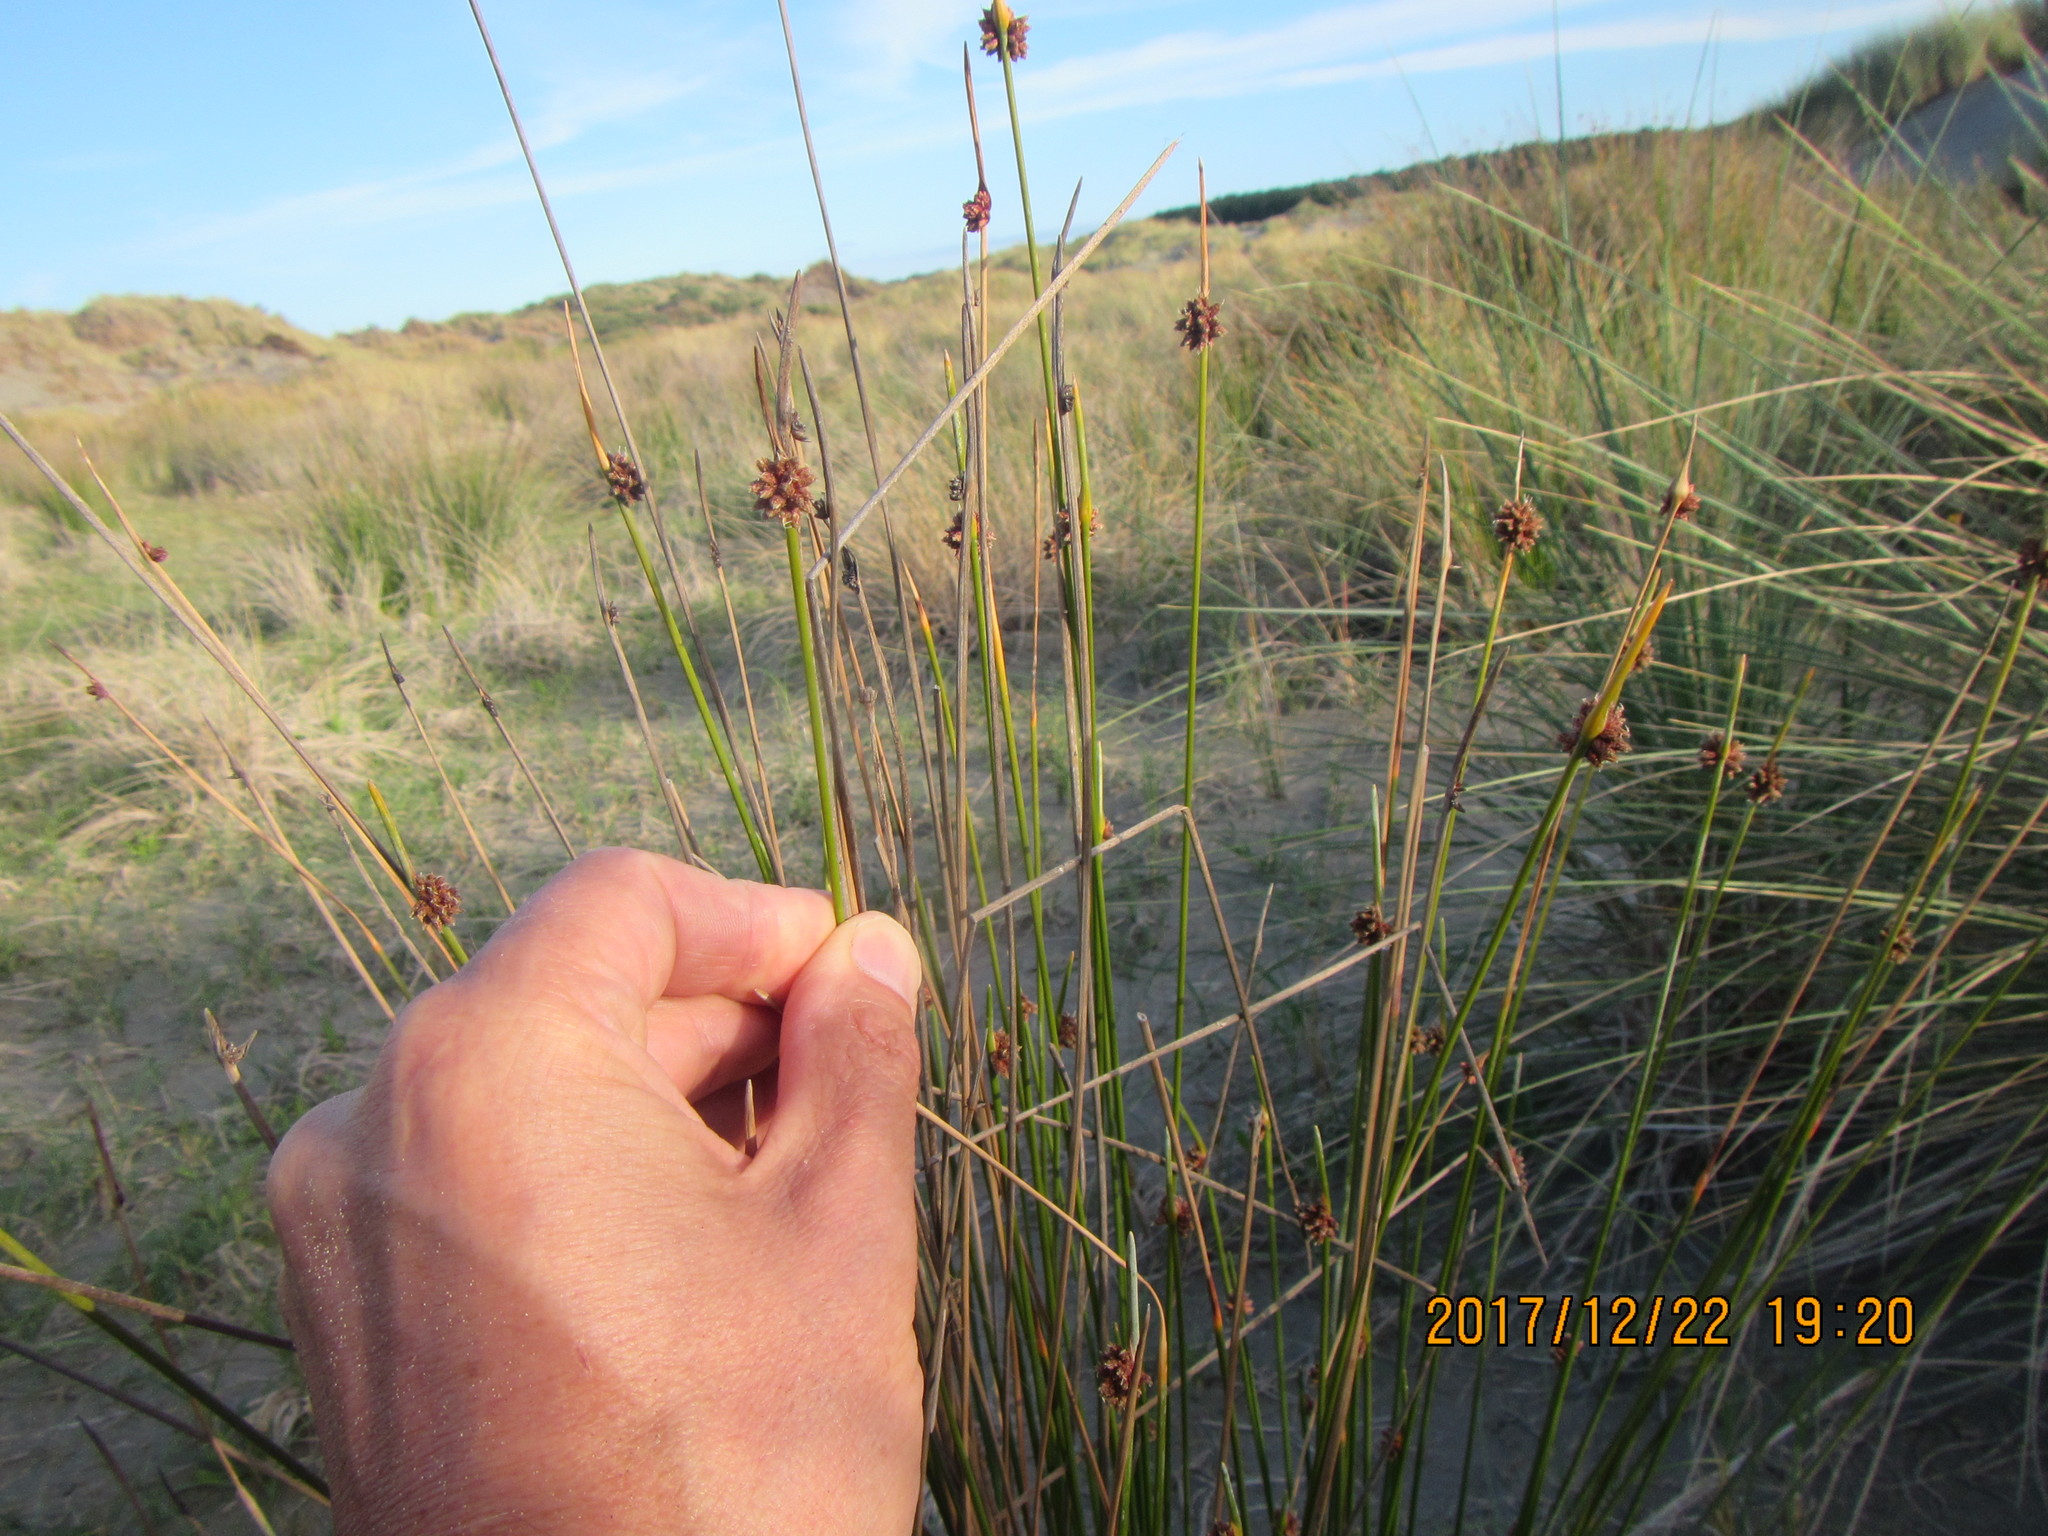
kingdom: Plantae
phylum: Tracheophyta
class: Liliopsida
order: Poales
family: Cyperaceae
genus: Ficinia
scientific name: Ficinia nodosa
